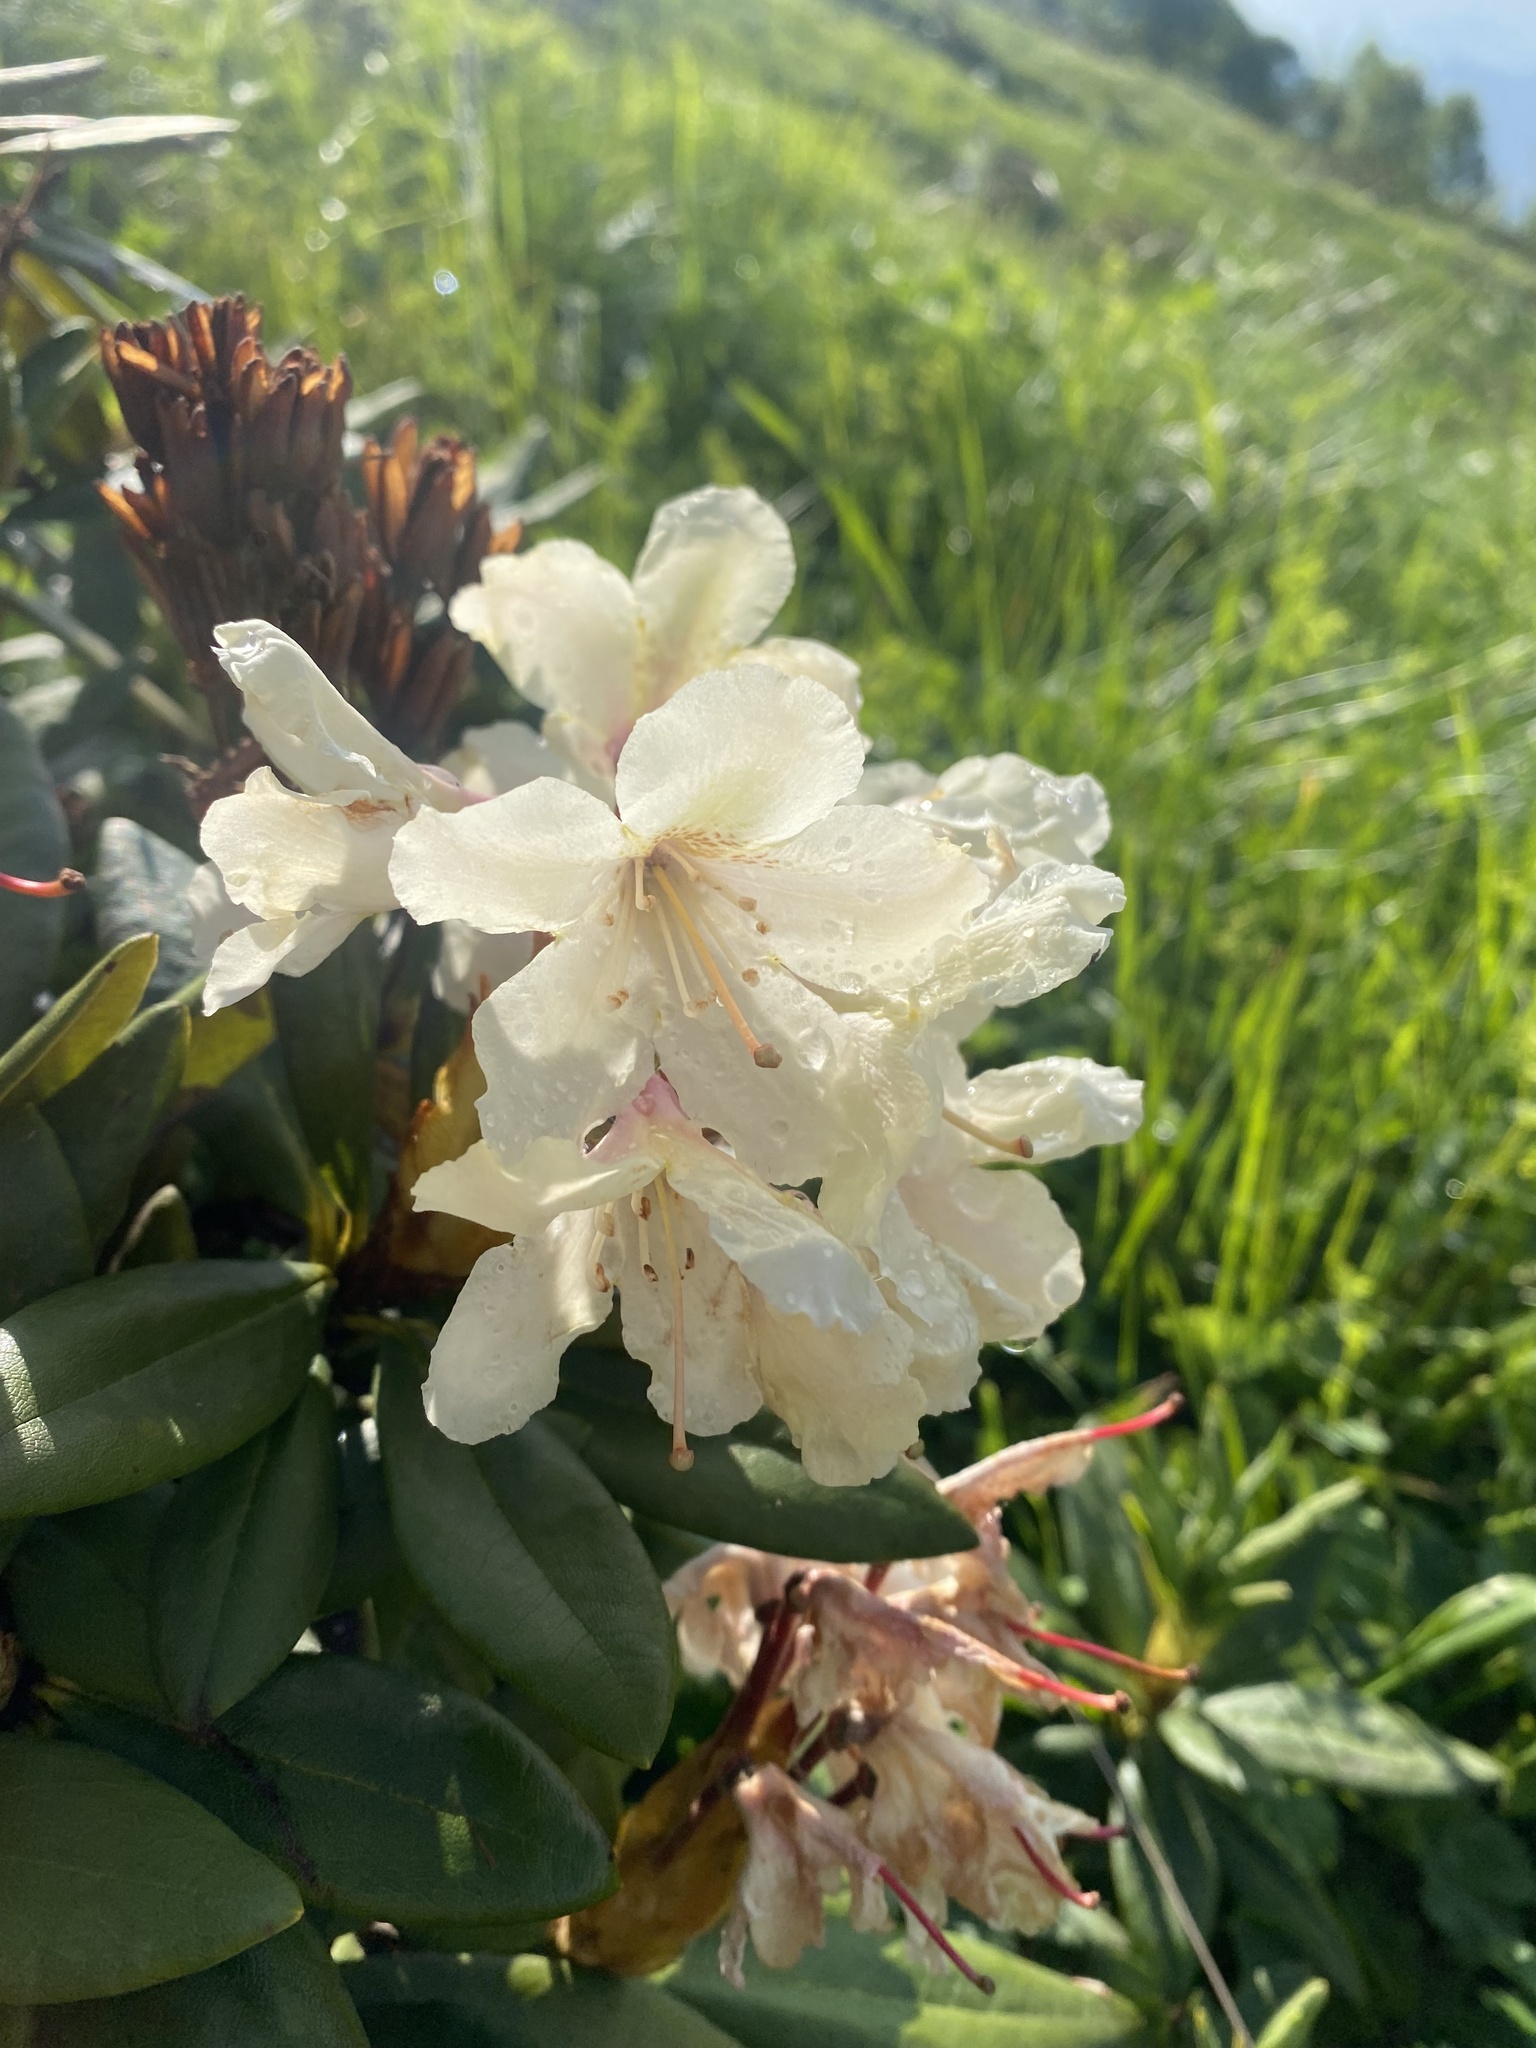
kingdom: Plantae
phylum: Tracheophyta
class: Magnoliopsida
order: Ericales
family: Ericaceae
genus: Rhododendron
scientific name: Rhododendron caucasicum
